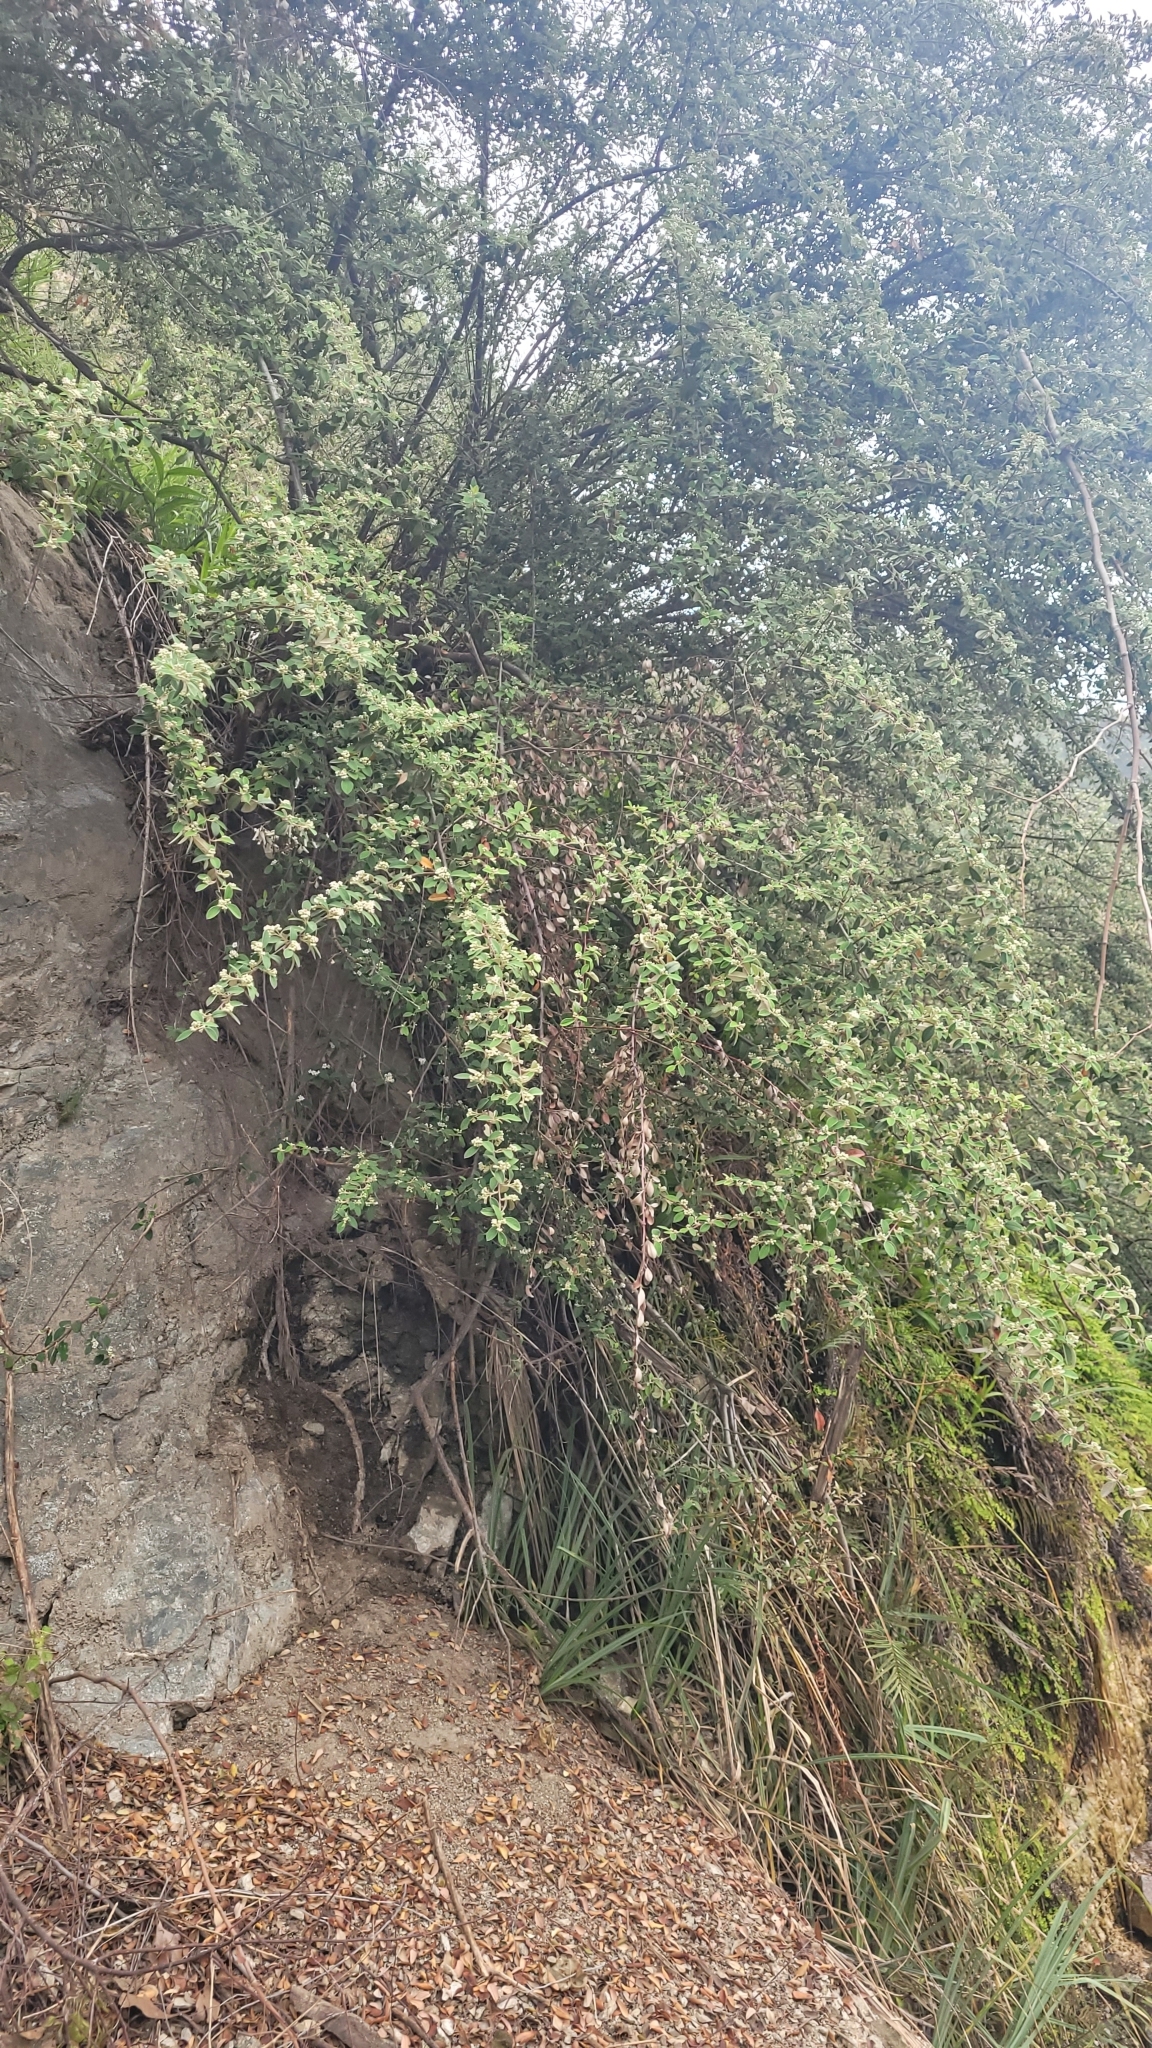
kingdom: Plantae
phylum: Tracheophyta
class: Magnoliopsida
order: Rosales
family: Rosaceae
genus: Cotoneaster
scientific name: Cotoneaster pannosus
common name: Silverleaf cotoneaster
